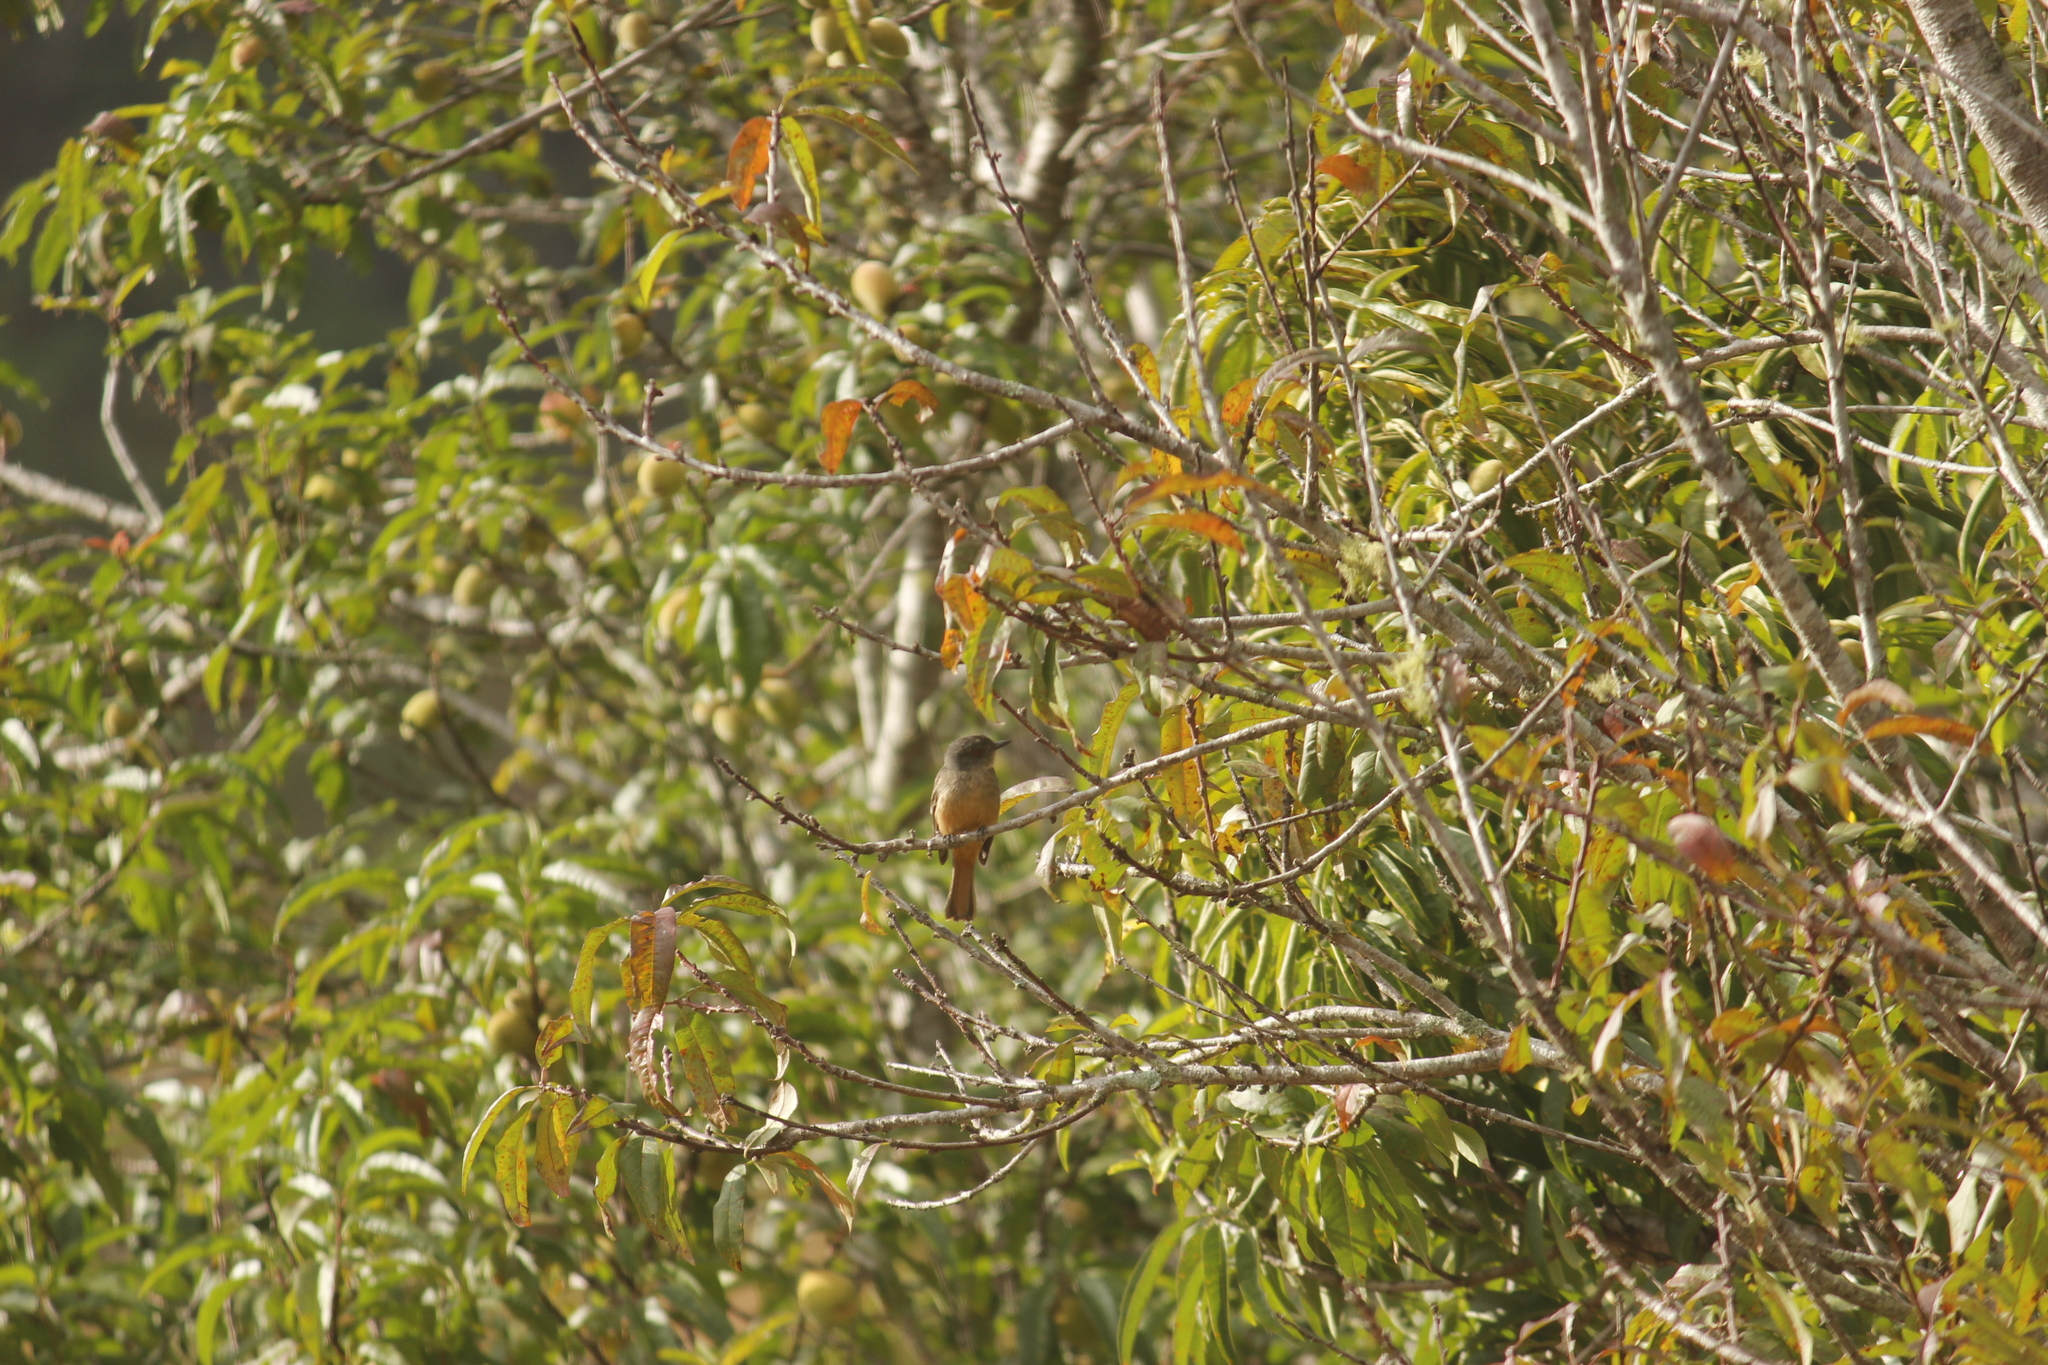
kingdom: Animalia
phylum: Chordata
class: Aves
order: Passeriformes
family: Tyrannidae
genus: Knipolegus
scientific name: Knipolegus poecilurus
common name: Rufous-tailed tyrant
